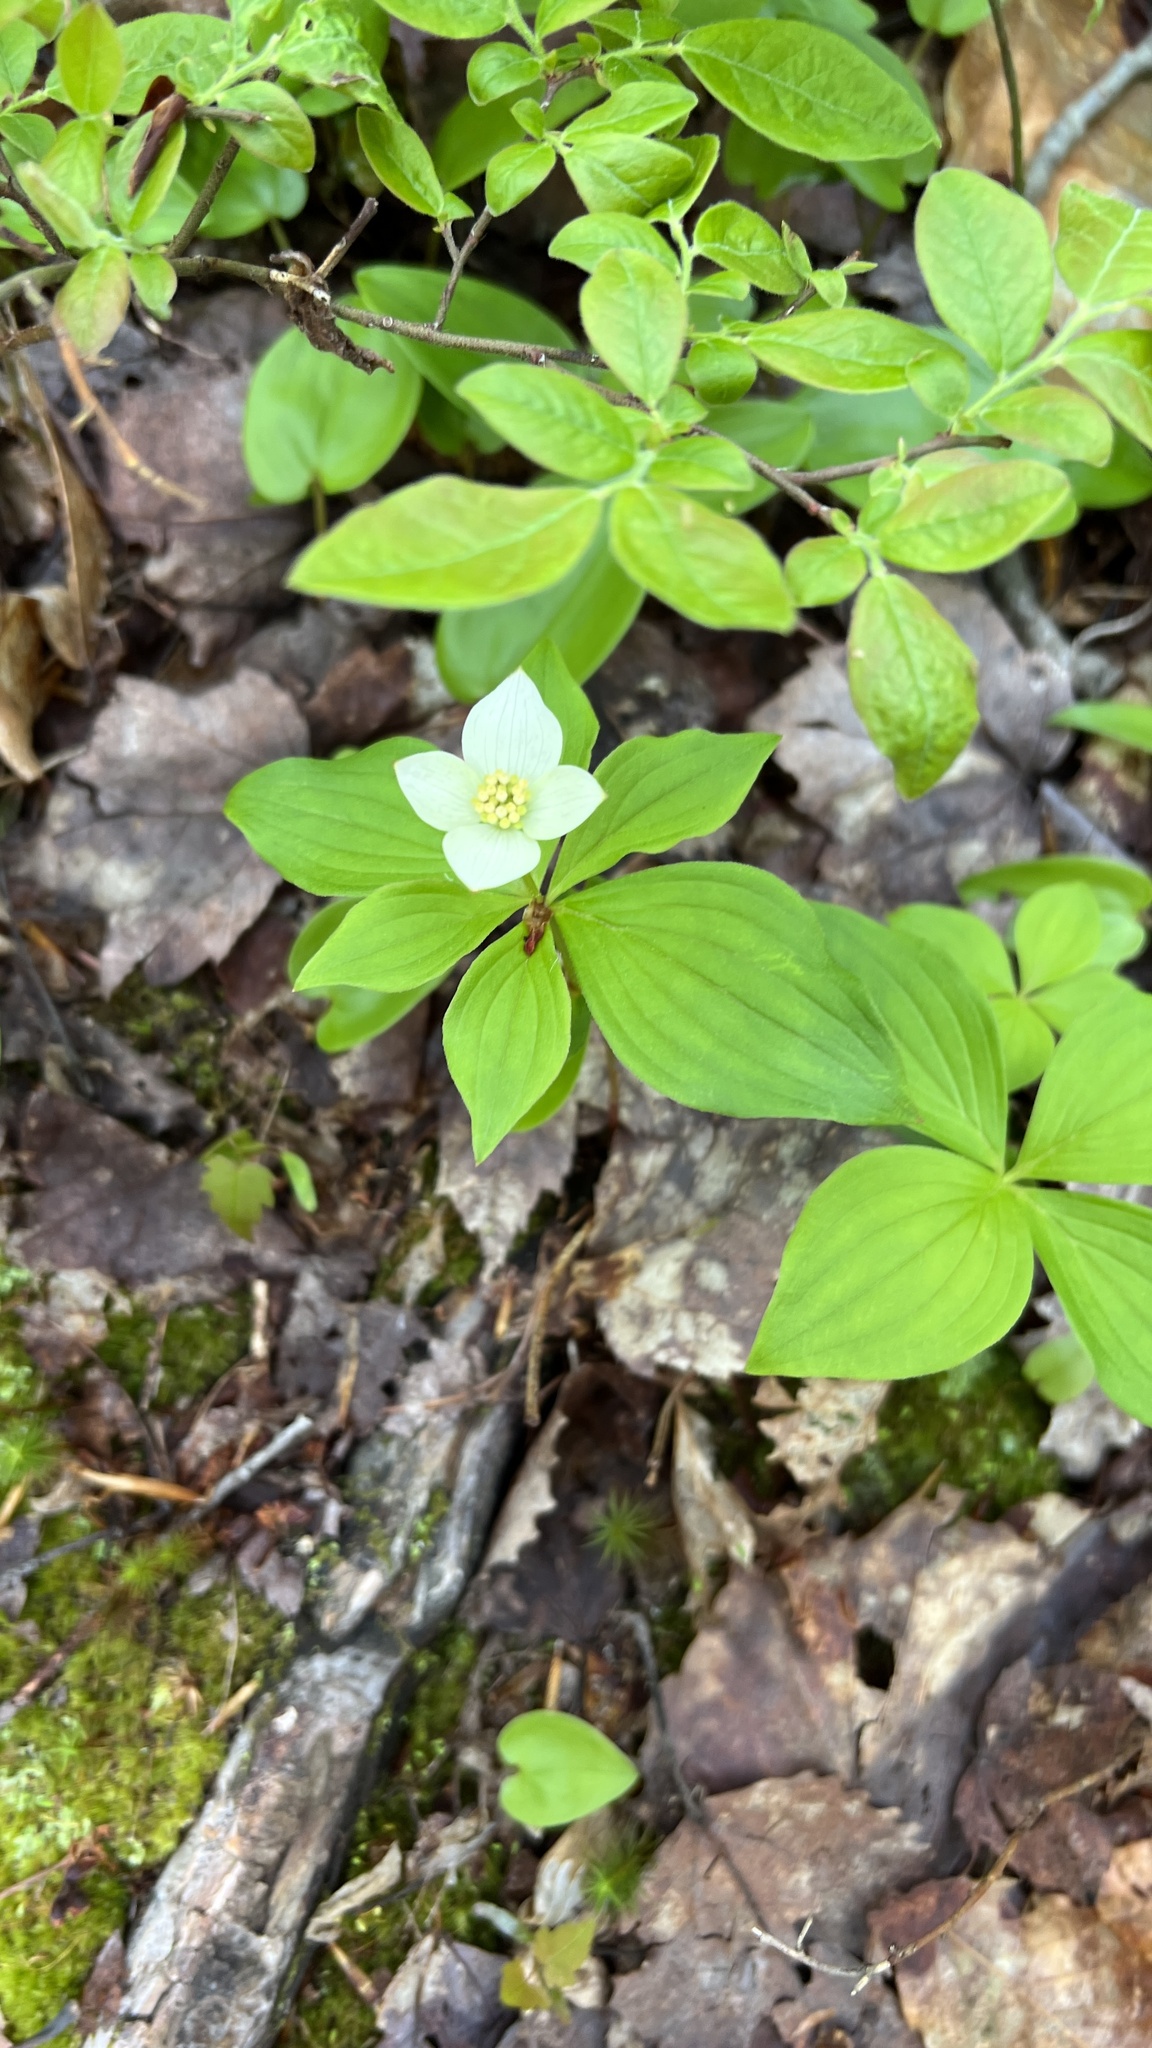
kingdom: Plantae
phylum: Tracheophyta
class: Magnoliopsida
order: Cornales
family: Cornaceae
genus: Cornus
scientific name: Cornus canadensis
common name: Creeping dogwood
